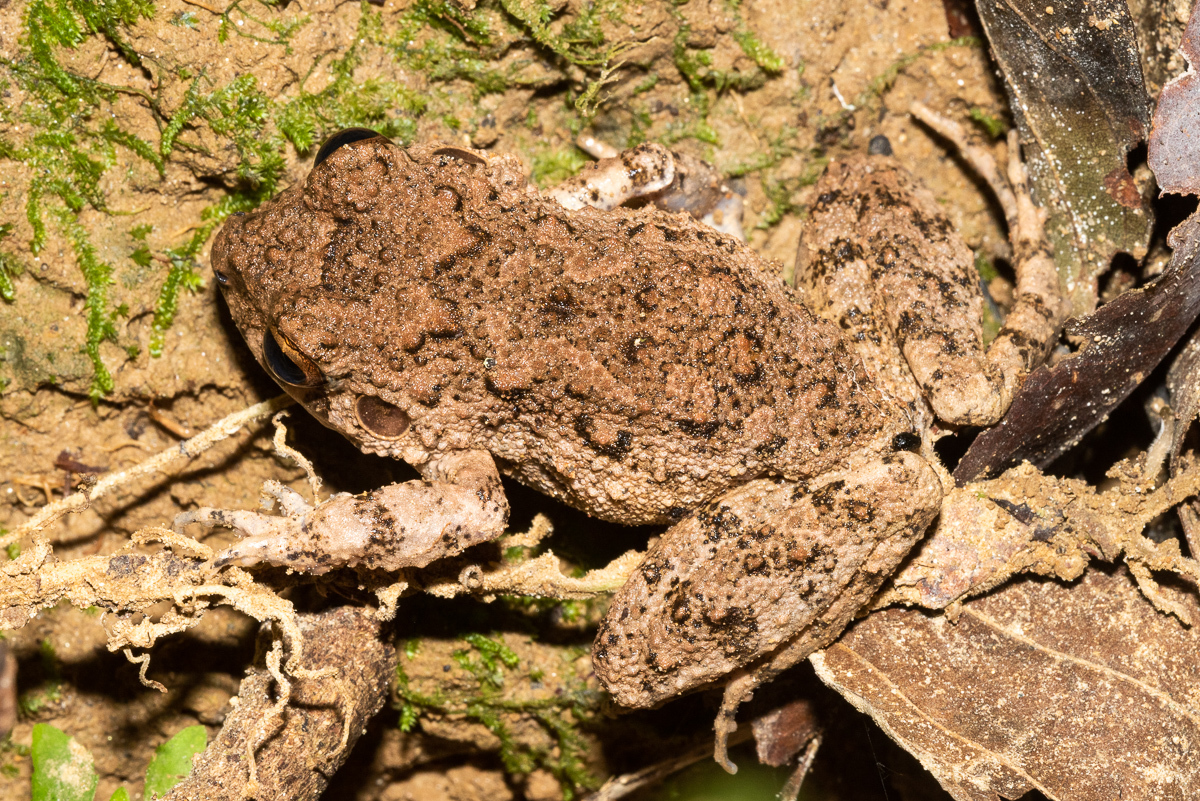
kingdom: Animalia
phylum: Chordata
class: Amphibia
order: Anura
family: Craugastoridae
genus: Oreobates
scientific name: Oreobates quixensis
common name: Common big-headed frog
